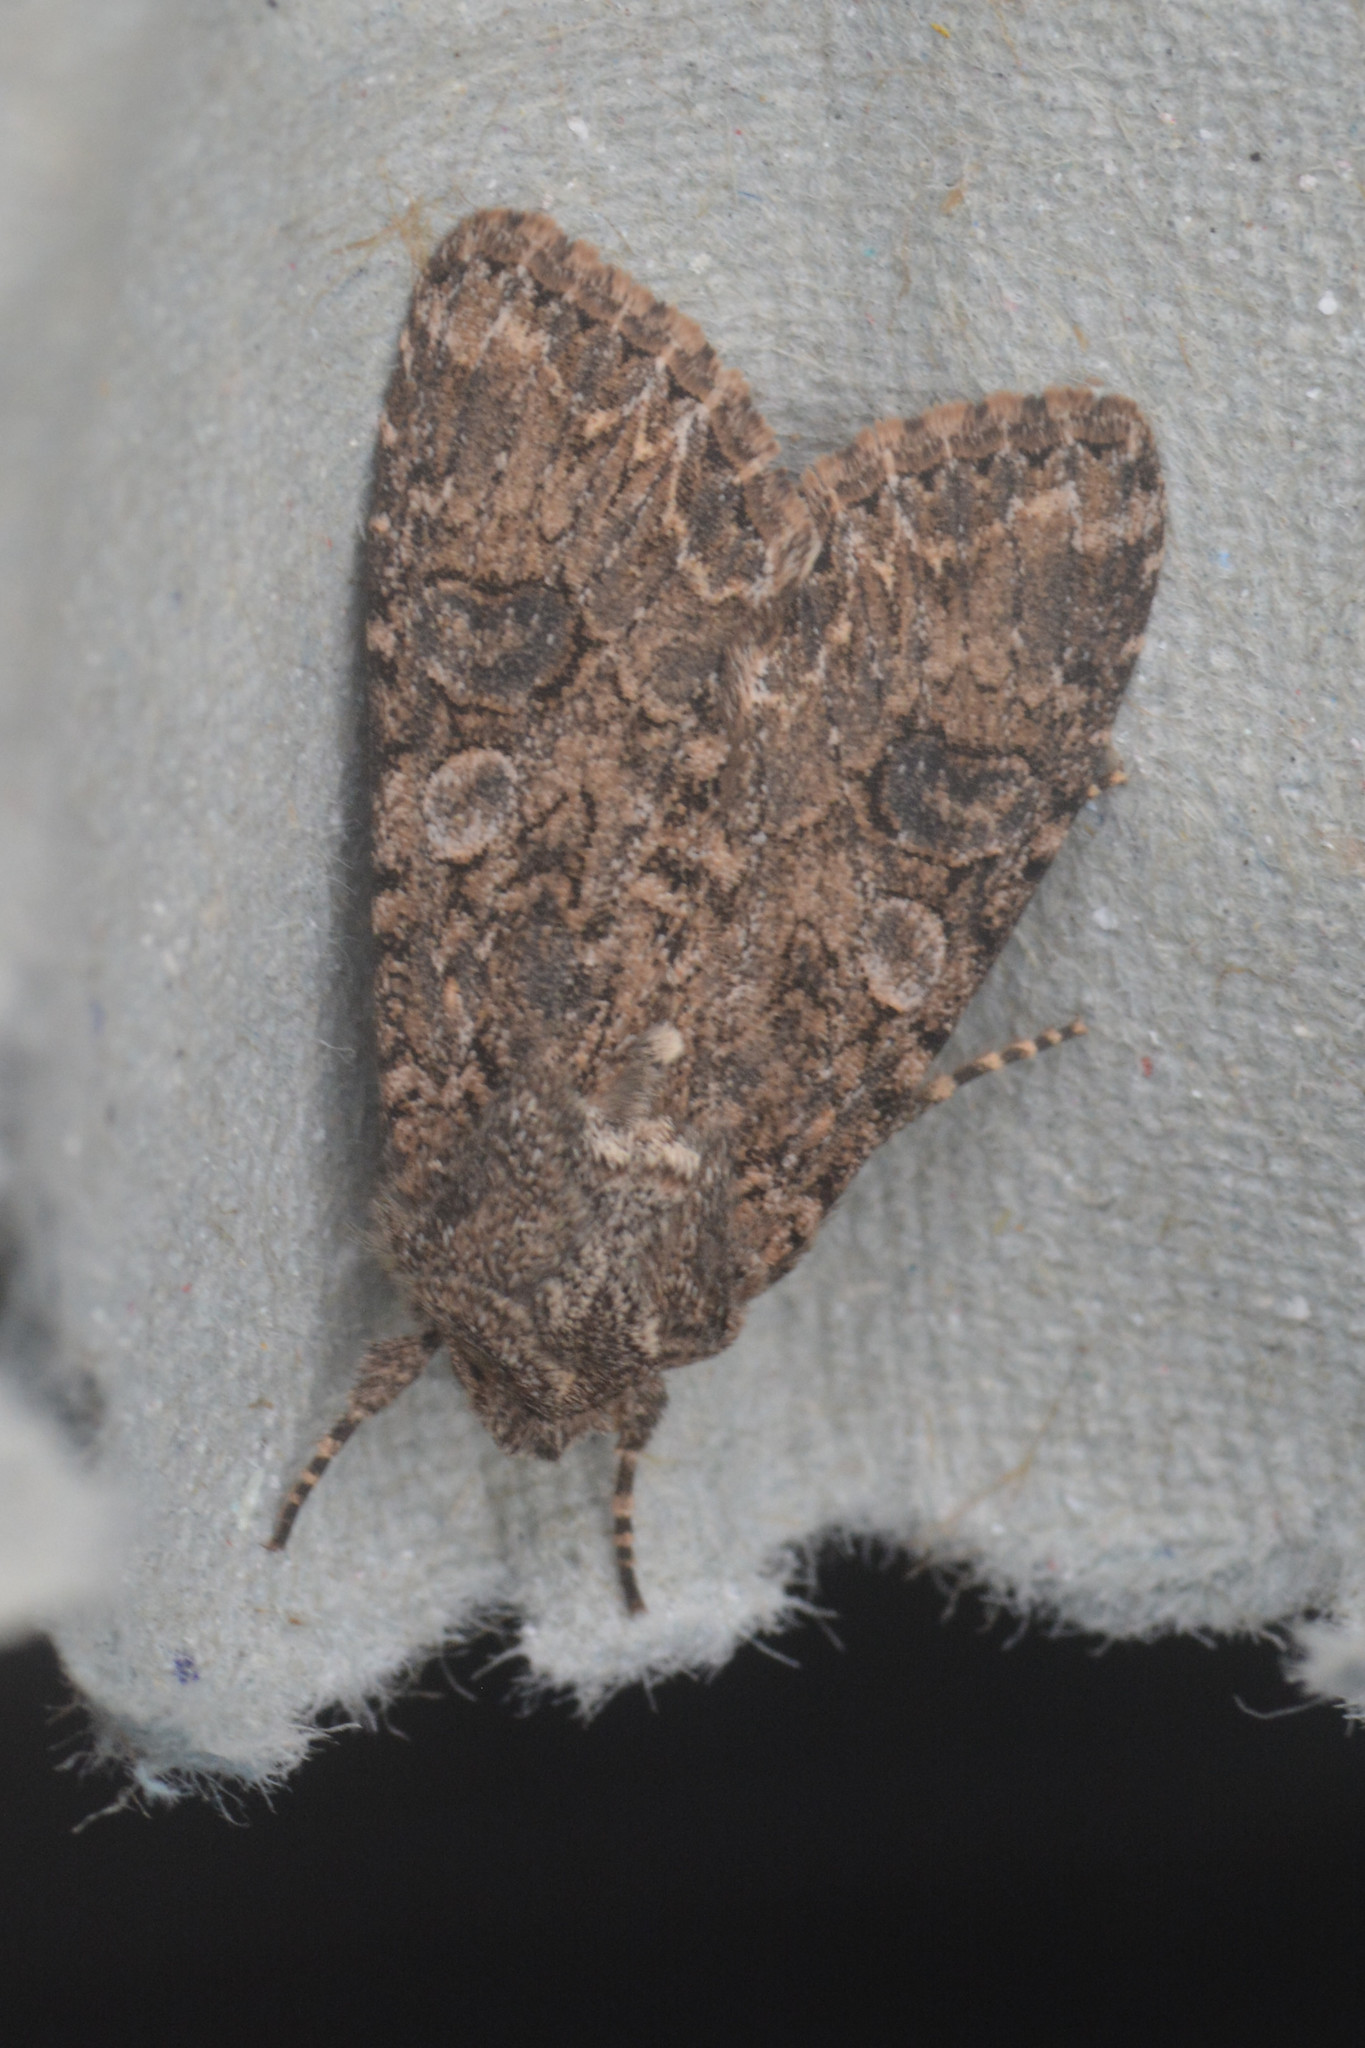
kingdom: Animalia
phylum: Arthropoda
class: Insecta
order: Lepidoptera
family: Noctuidae
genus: Anarta
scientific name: Anarta trifolii
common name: Clover cutworm moth
